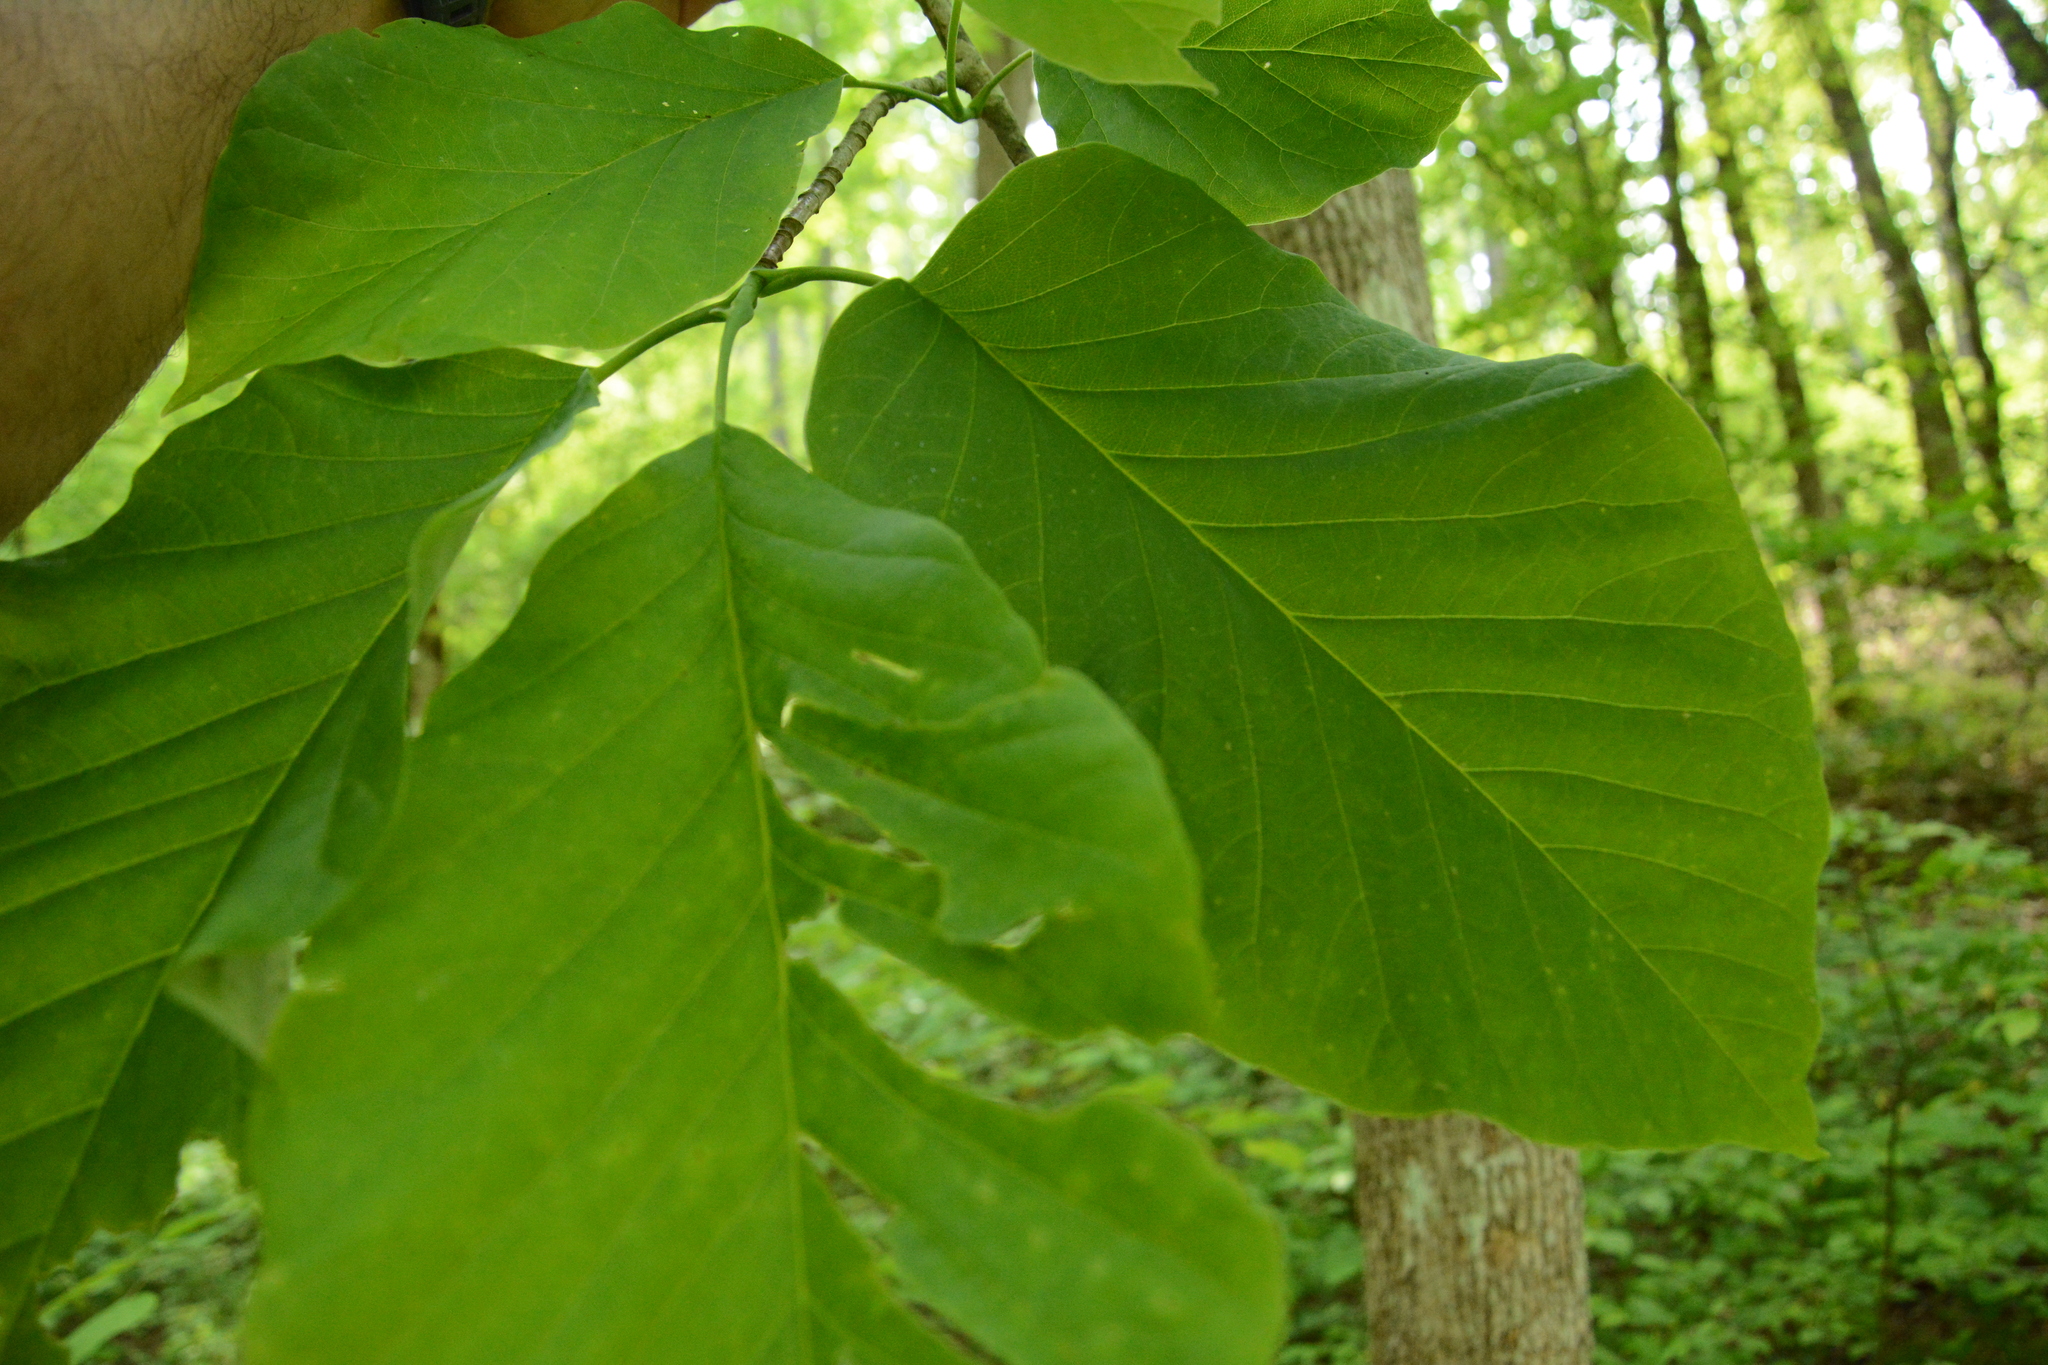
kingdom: Plantae
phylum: Tracheophyta
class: Magnoliopsida
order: Magnoliales
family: Magnoliaceae
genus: Magnolia
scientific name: Magnolia acuminata
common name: Cucumber magnolia
